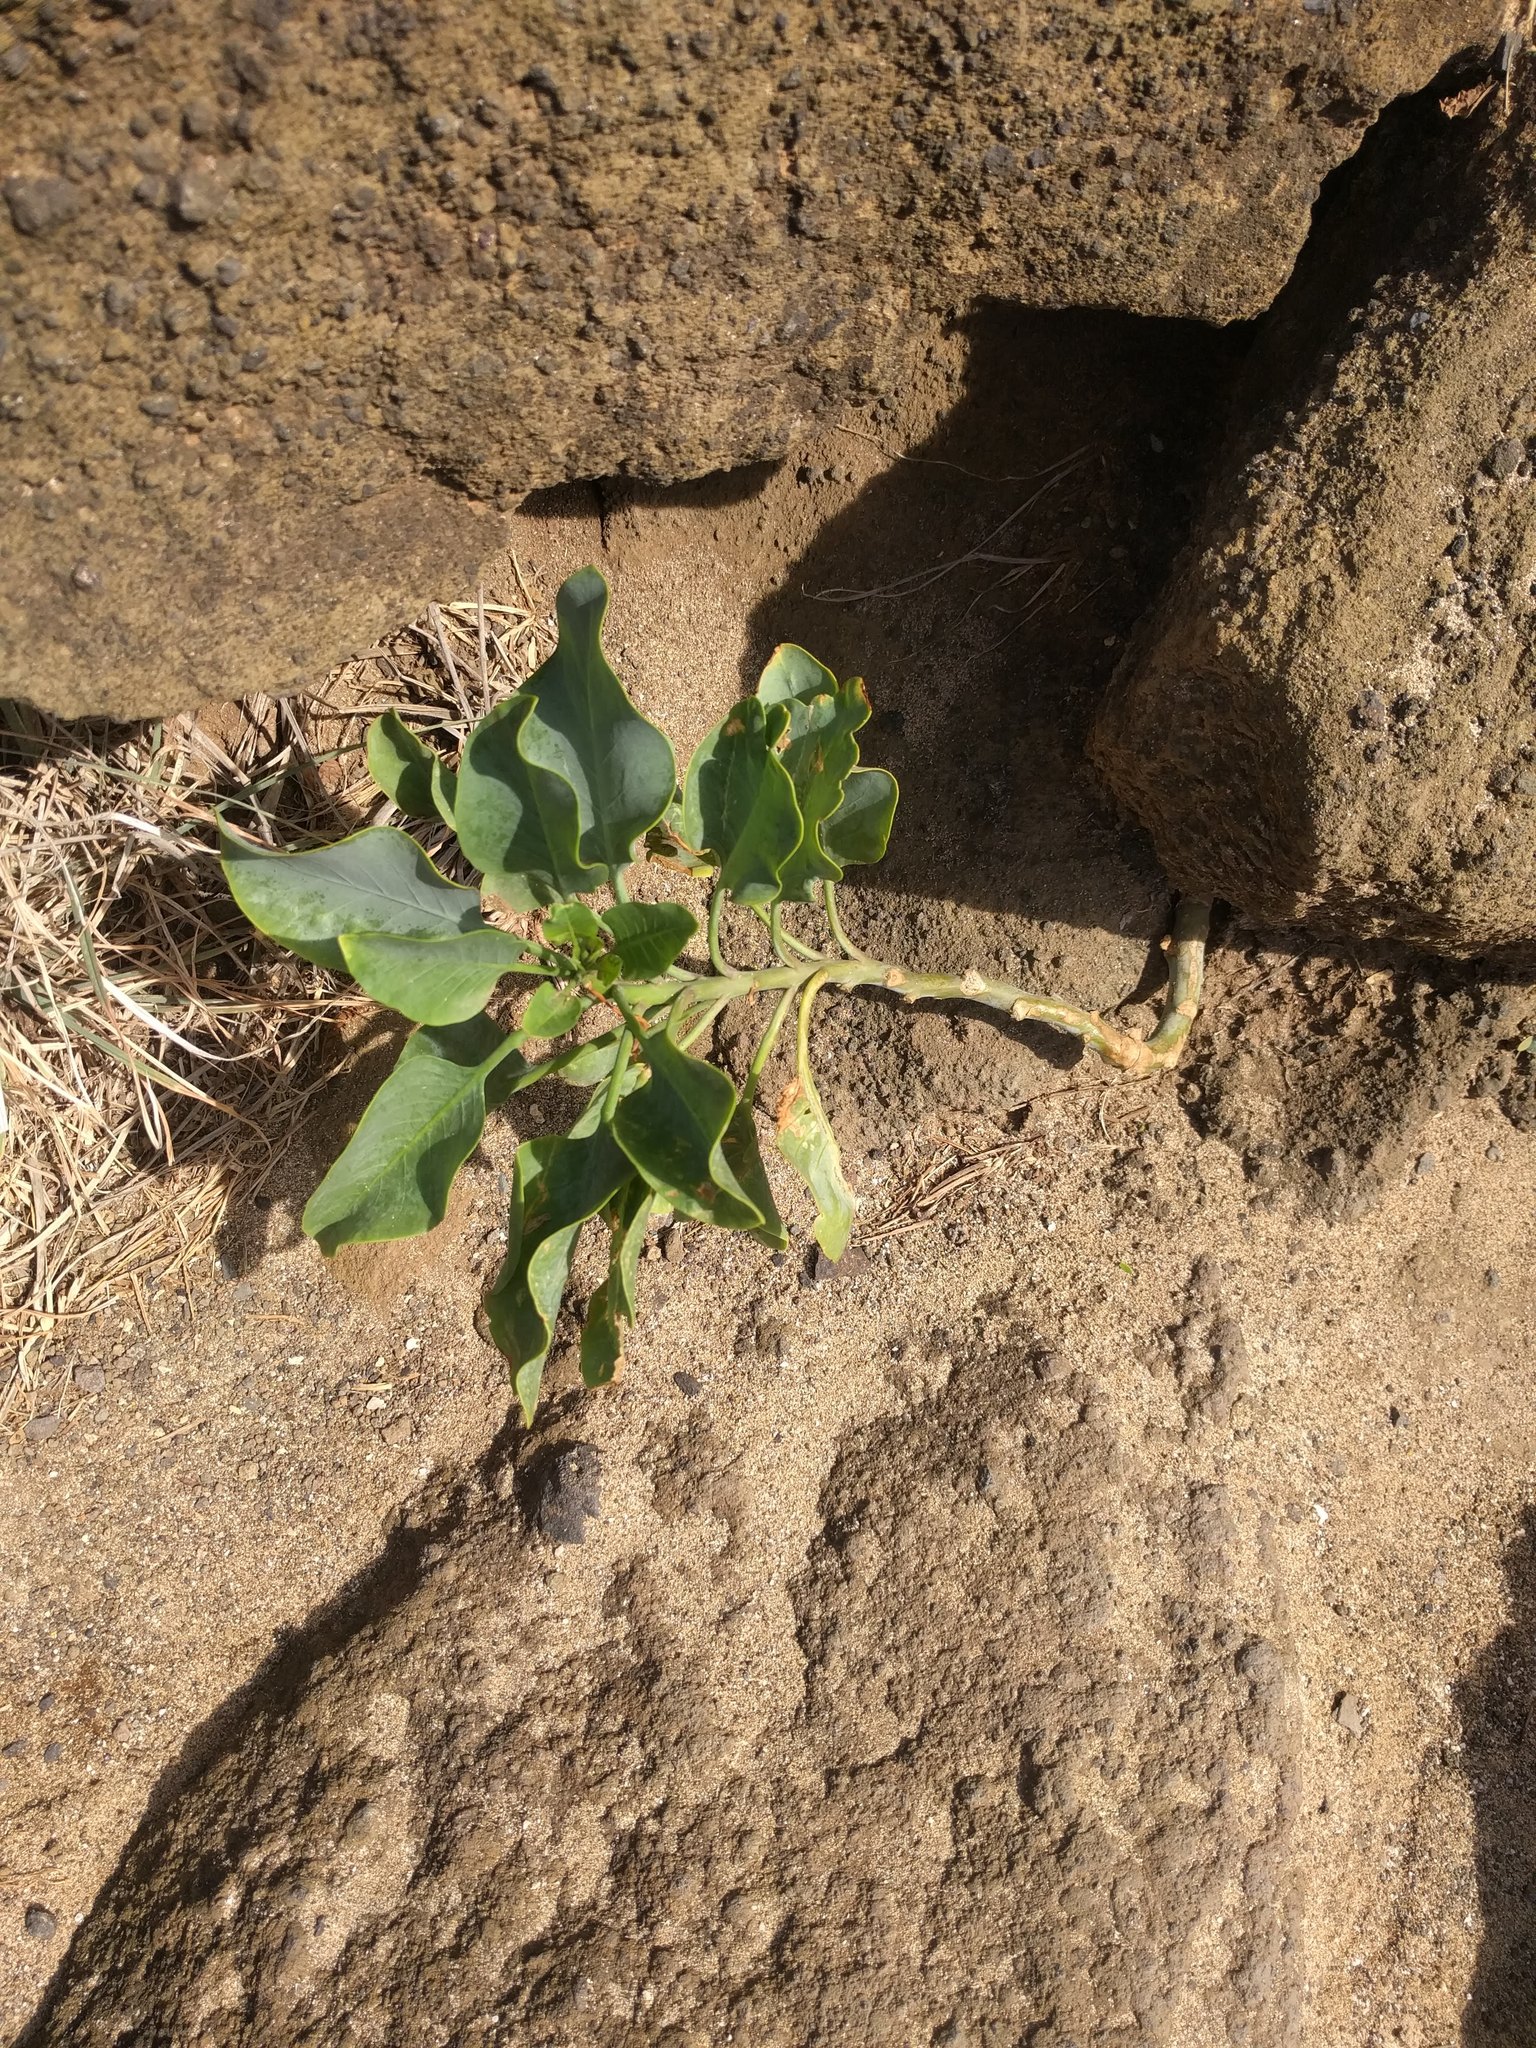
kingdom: Plantae
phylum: Tracheophyta
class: Magnoliopsida
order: Solanales
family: Solanaceae
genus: Nicotiana
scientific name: Nicotiana glauca
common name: Tree tobacco
